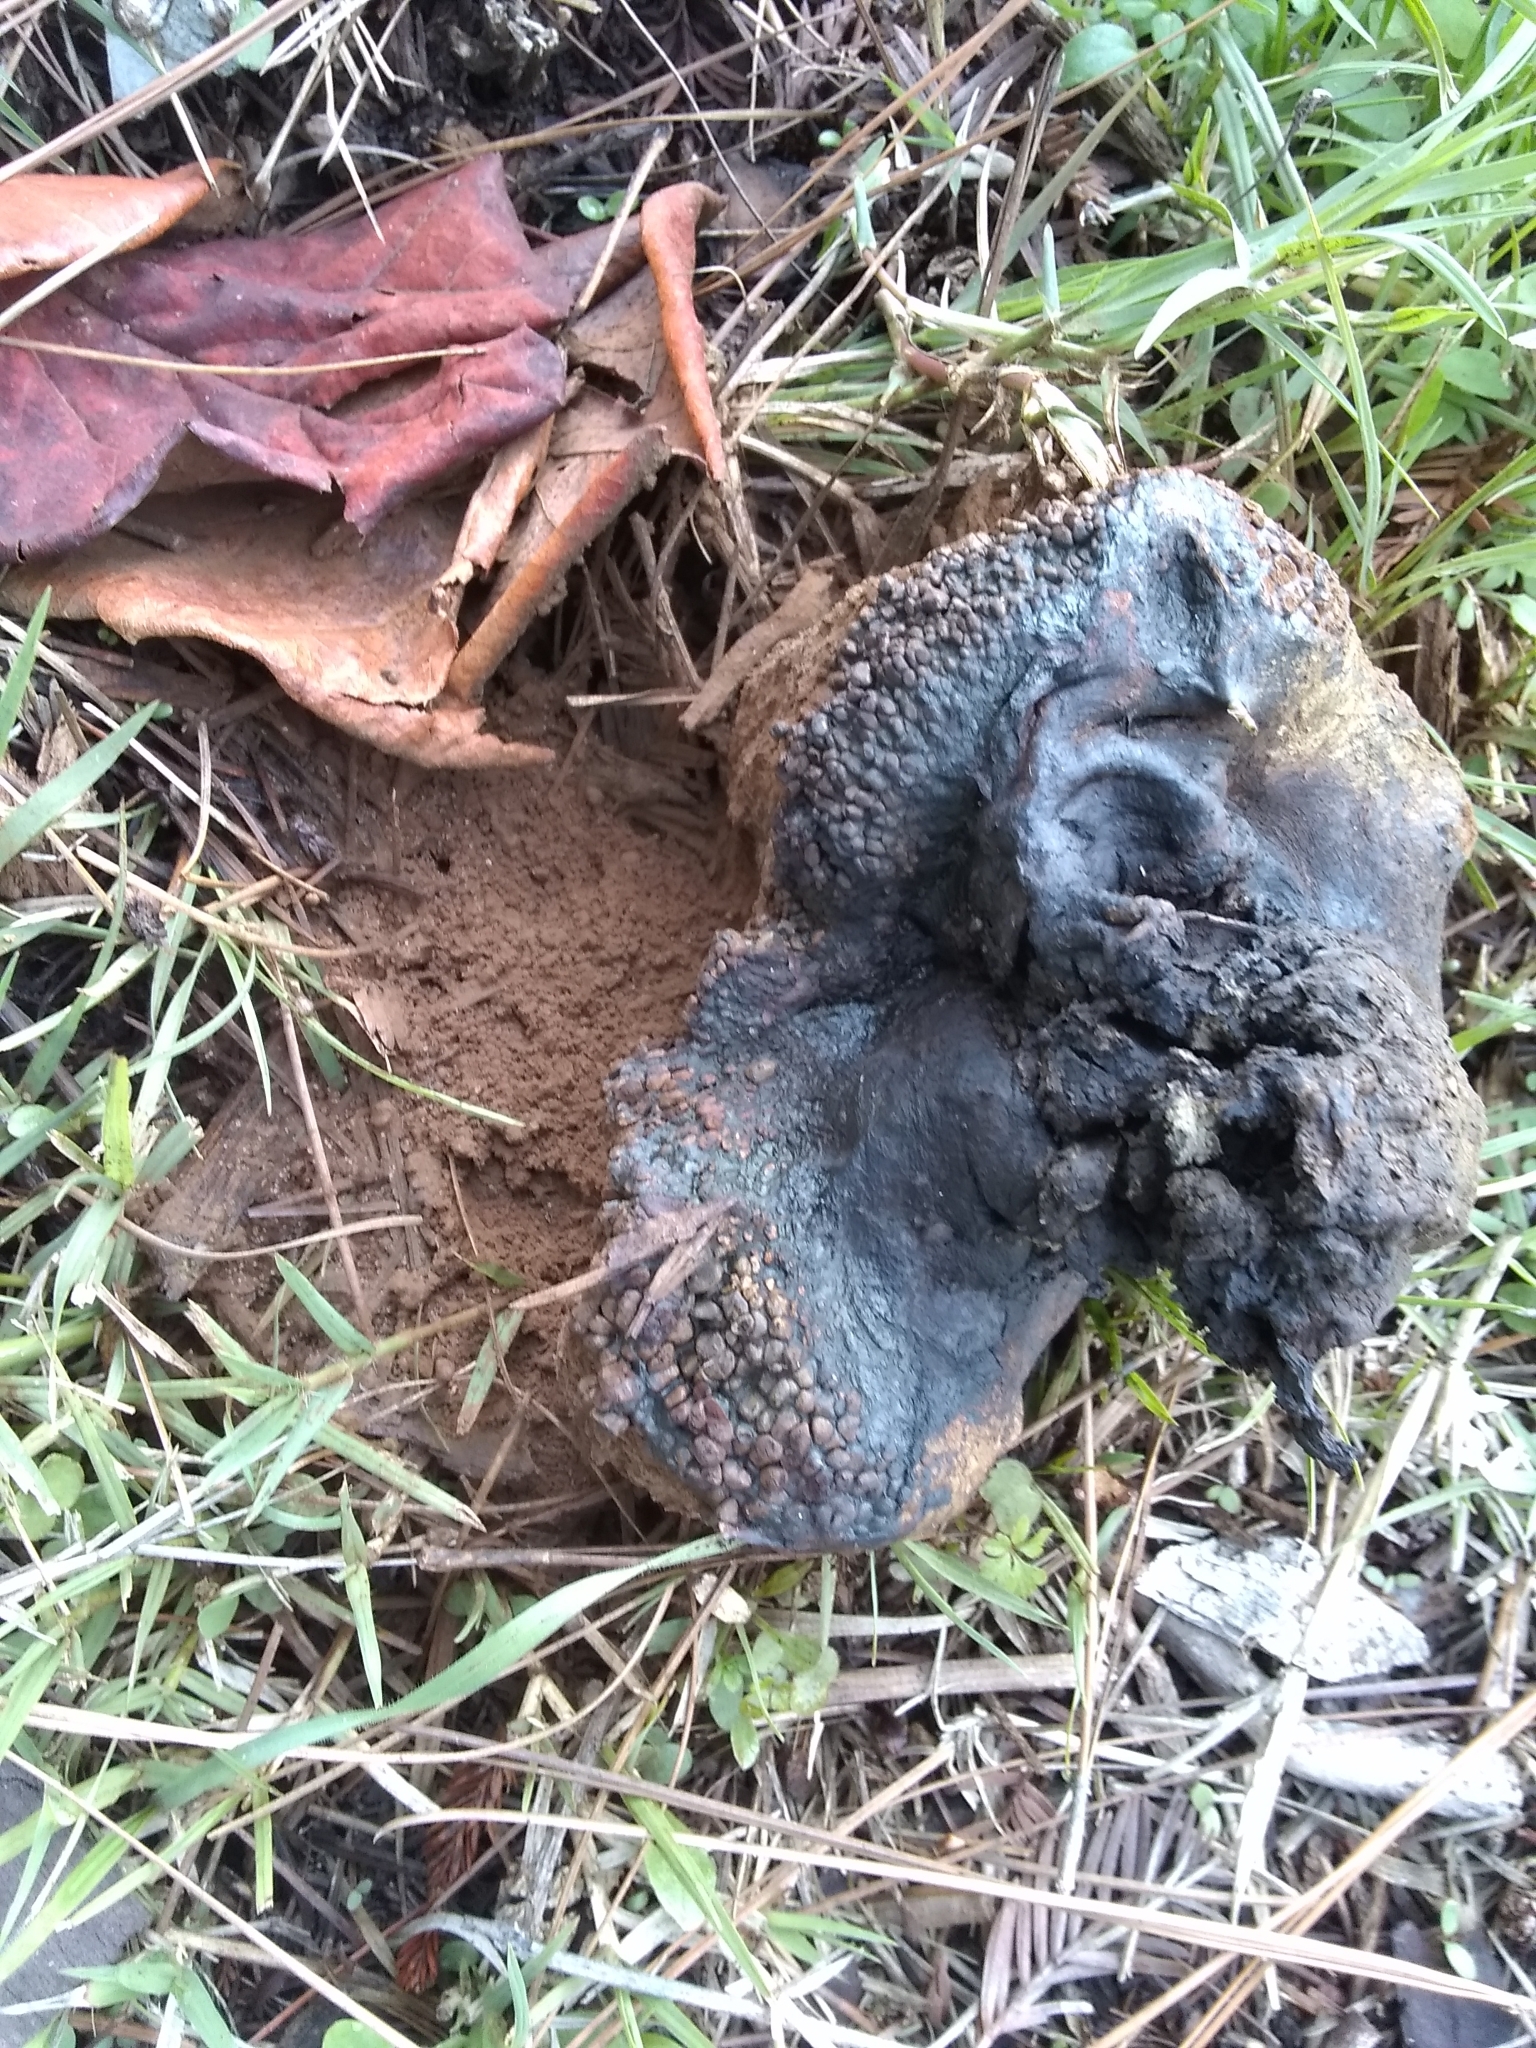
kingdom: Fungi
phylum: Basidiomycota
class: Agaricomycetes
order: Boletales
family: Sclerodermataceae
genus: Pisolithus
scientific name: Pisolithus tinctorius
